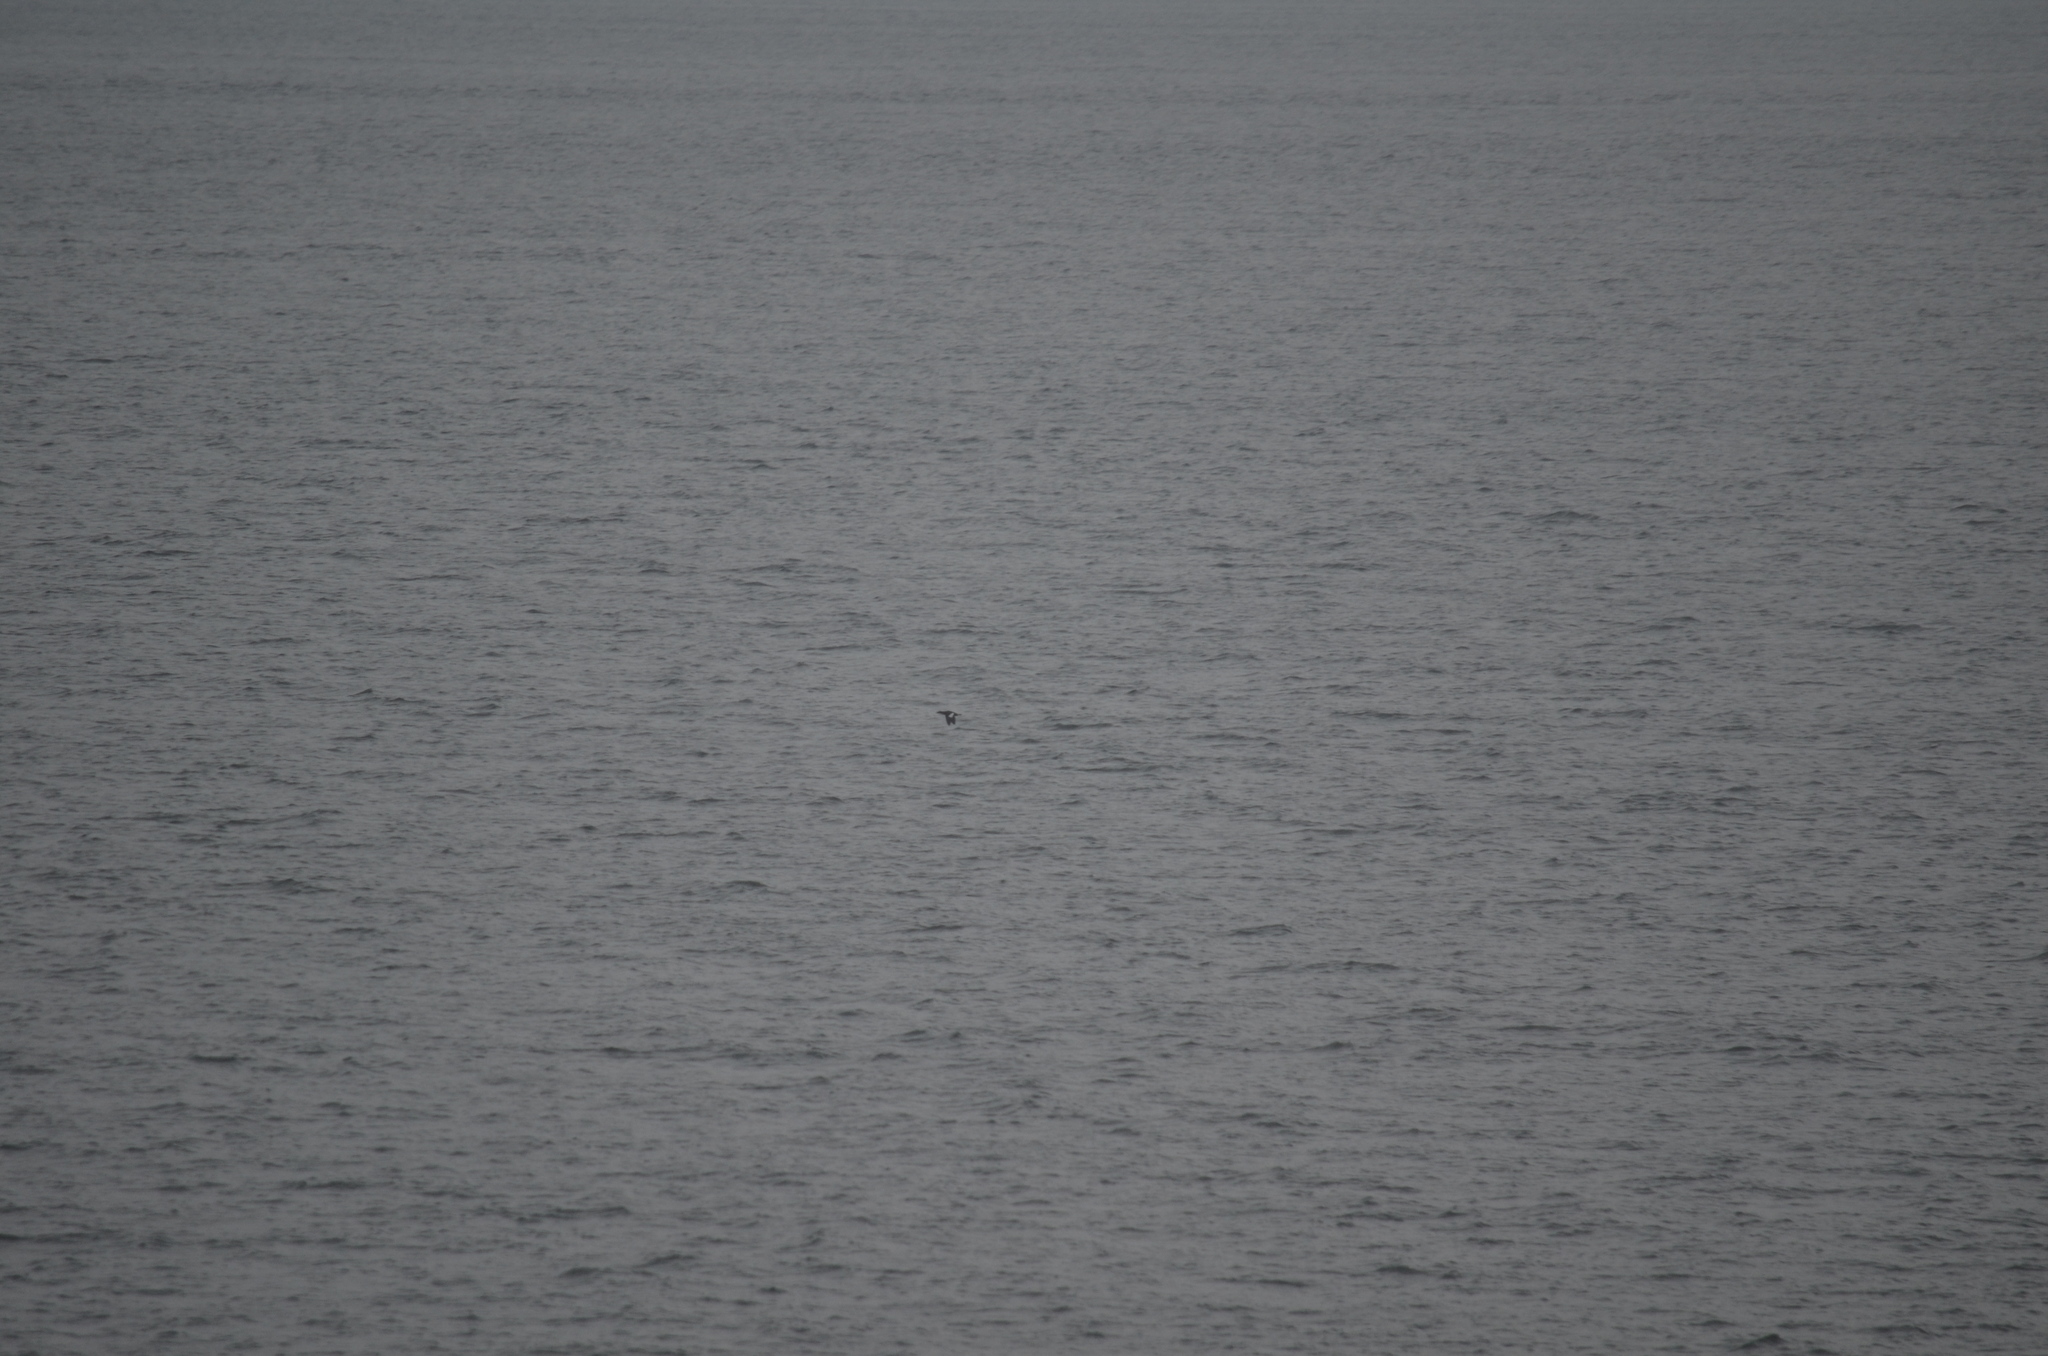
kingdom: Animalia
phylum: Chordata
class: Aves
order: Suliformes
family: Phalacrocoracidae
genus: Phalacrocorax
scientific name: Phalacrocorax pelagicus
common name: Pelagic cormorant
